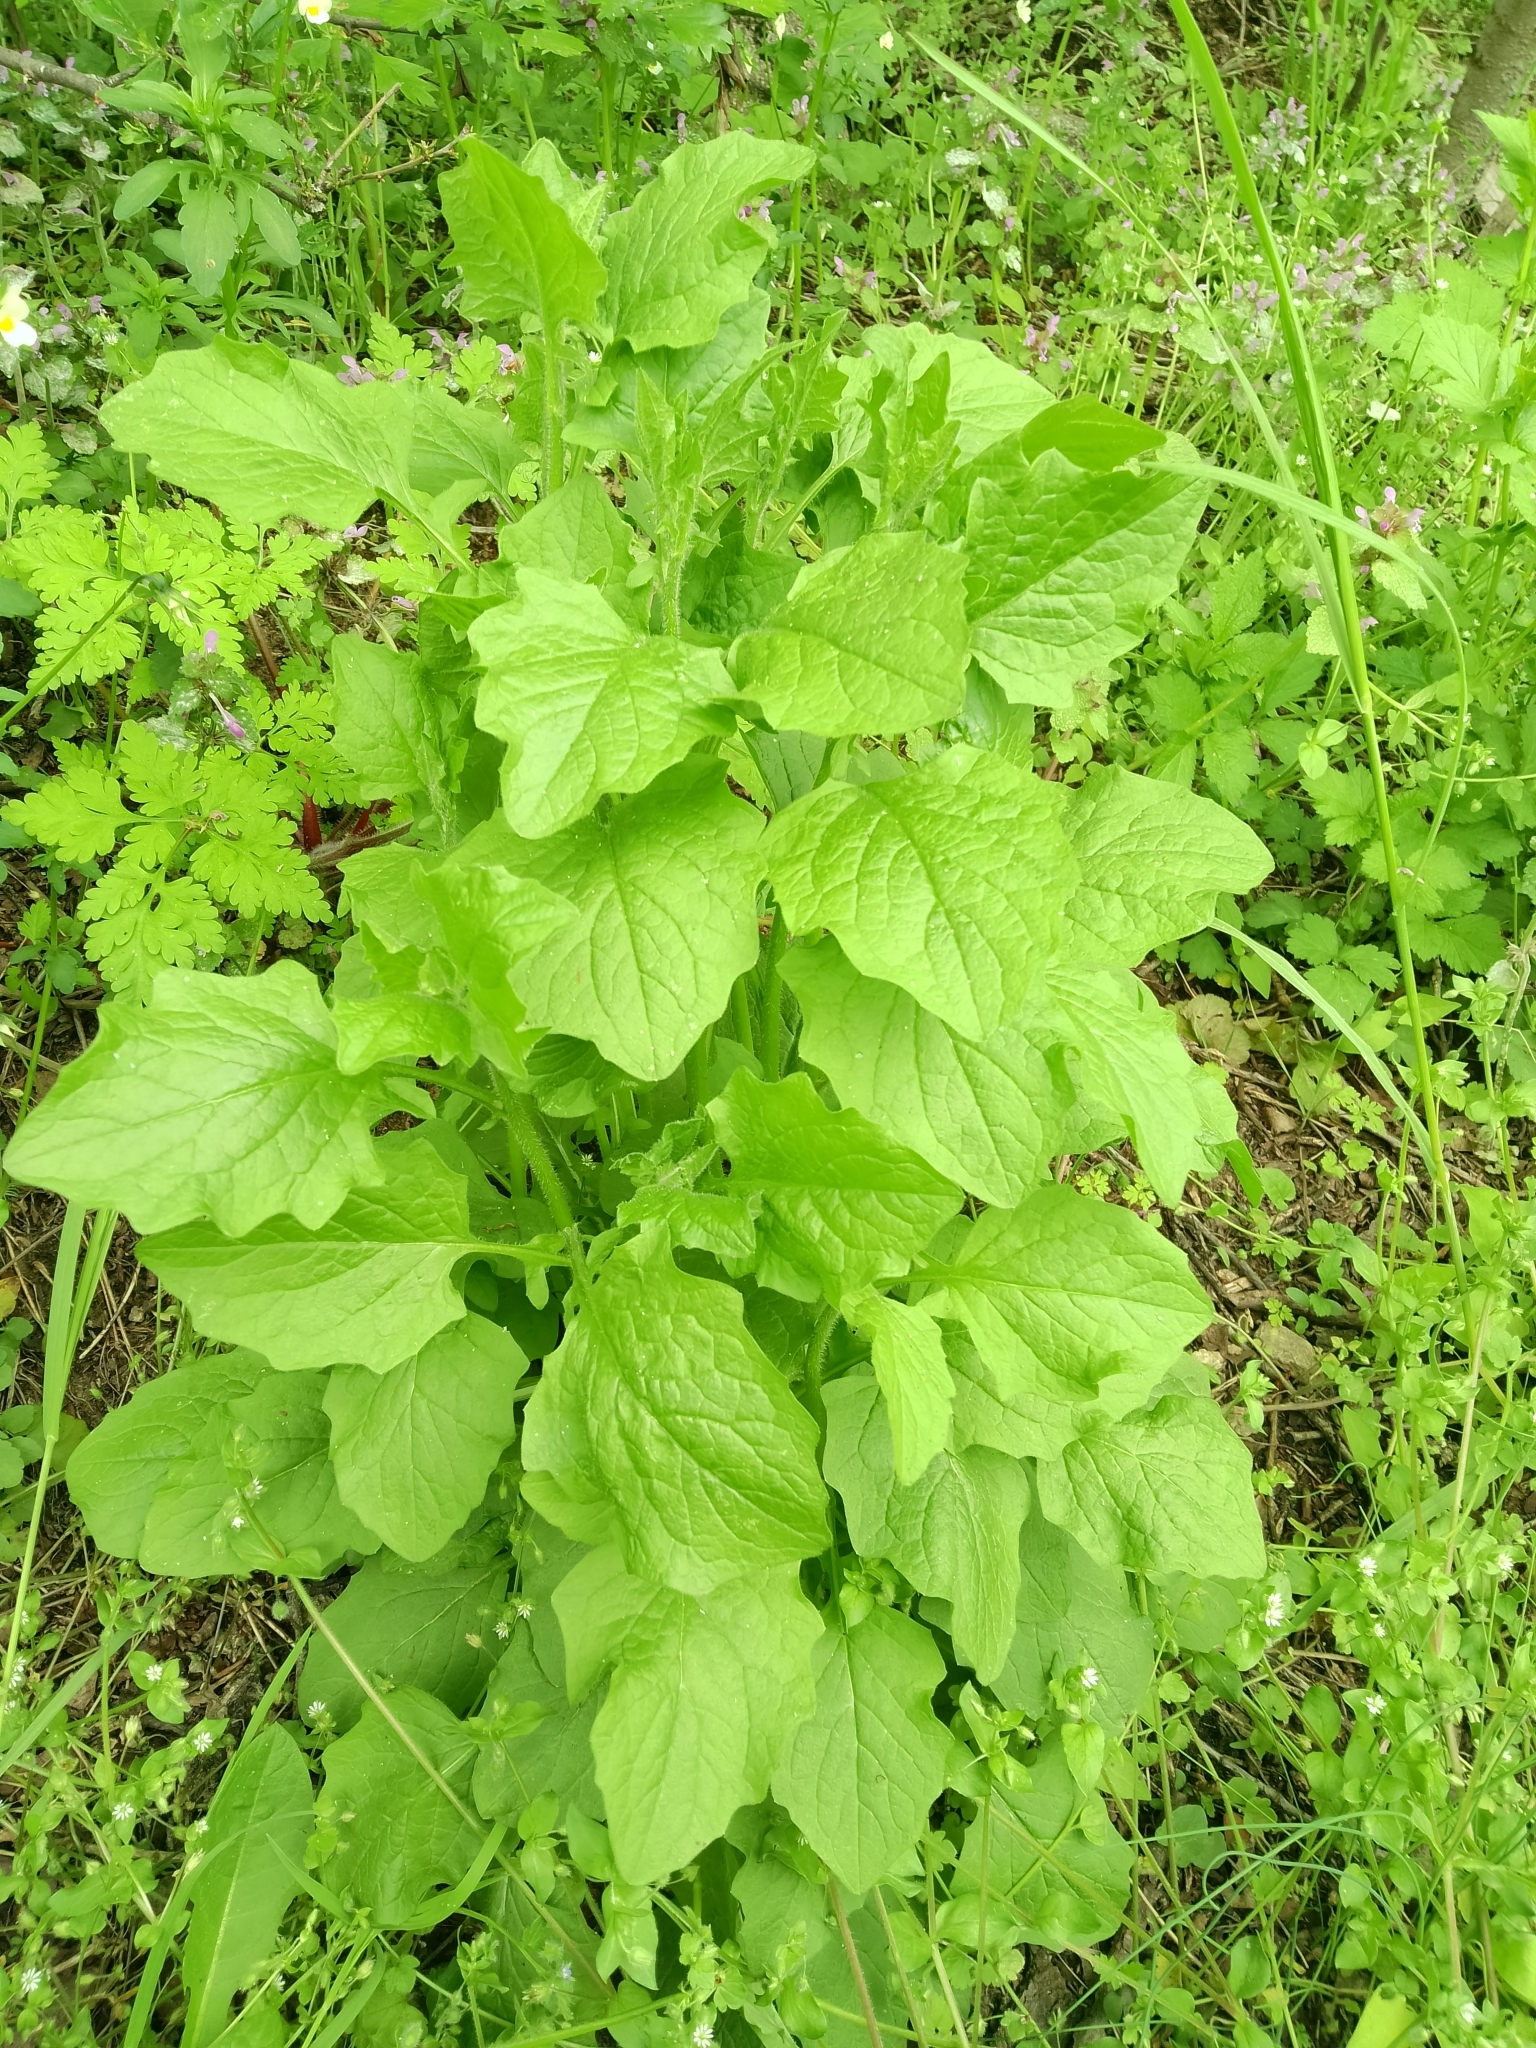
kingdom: Plantae
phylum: Tracheophyta
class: Magnoliopsida
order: Asterales
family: Asteraceae
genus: Lapsana
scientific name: Lapsana communis
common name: Nipplewort
